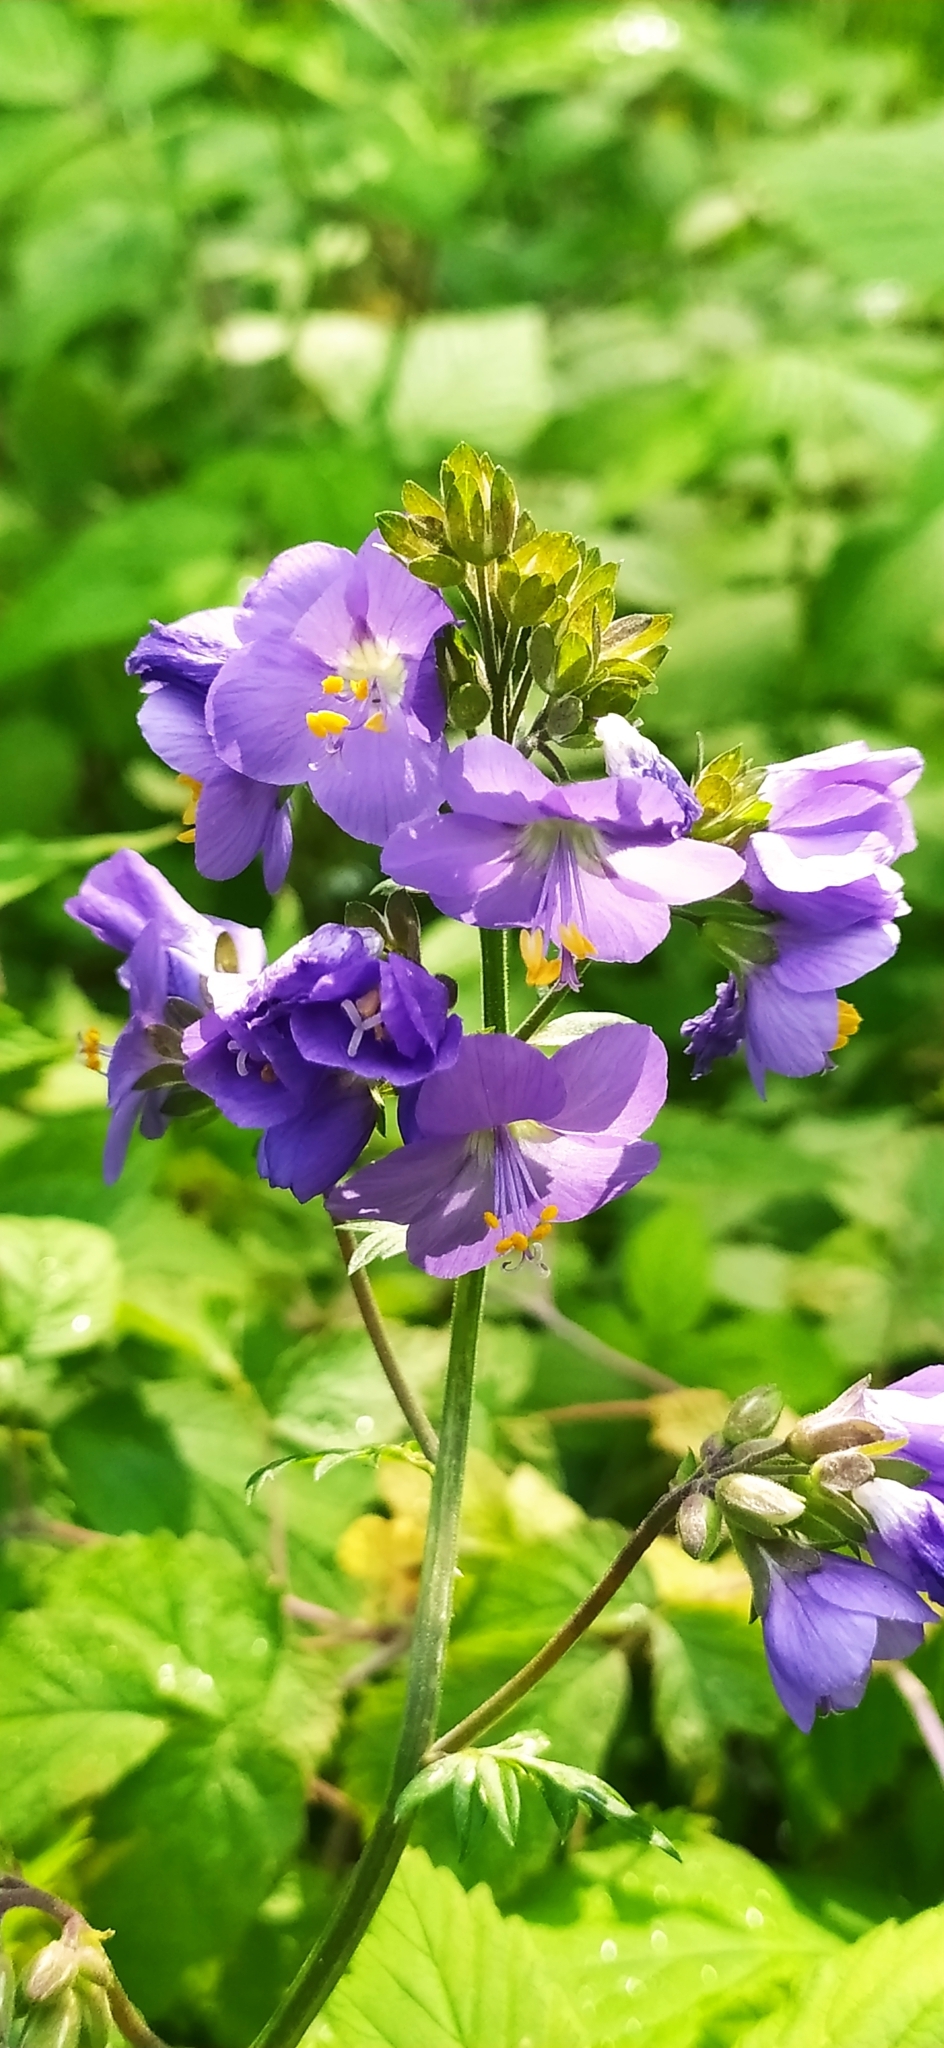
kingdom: Plantae
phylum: Tracheophyta
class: Magnoliopsida
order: Ericales
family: Polemoniaceae
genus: Polemonium
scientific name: Polemonium caeruleum
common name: Jacob's-ladder
